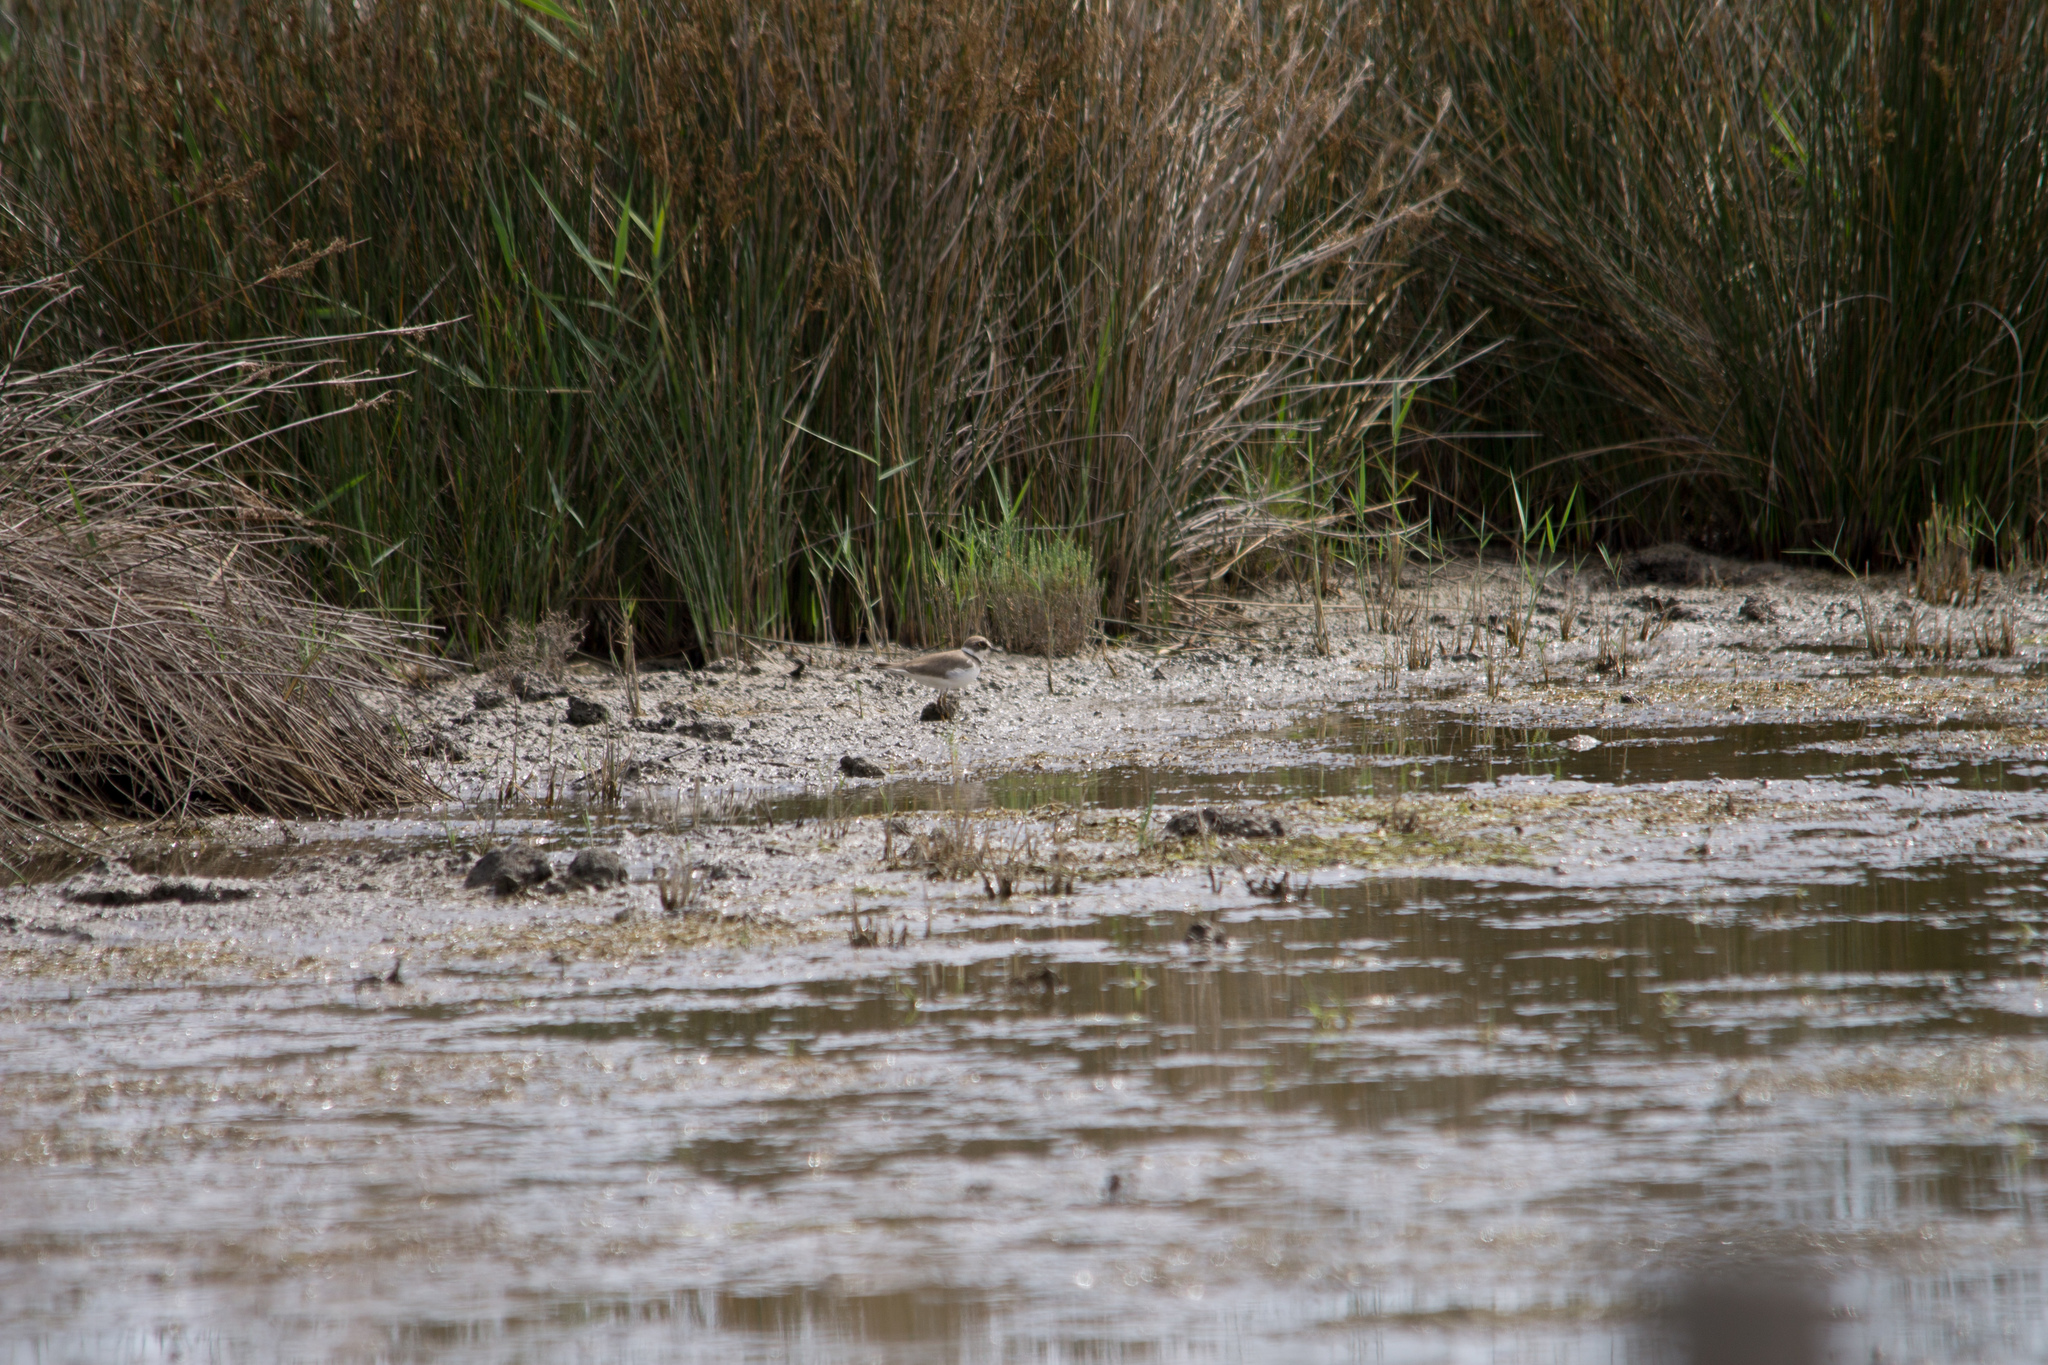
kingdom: Animalia
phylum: Chordata
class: Aves
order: Charadriiformes
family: Charadriidae
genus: Charadrius
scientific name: Charadrius dubius
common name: Little ringed plover
